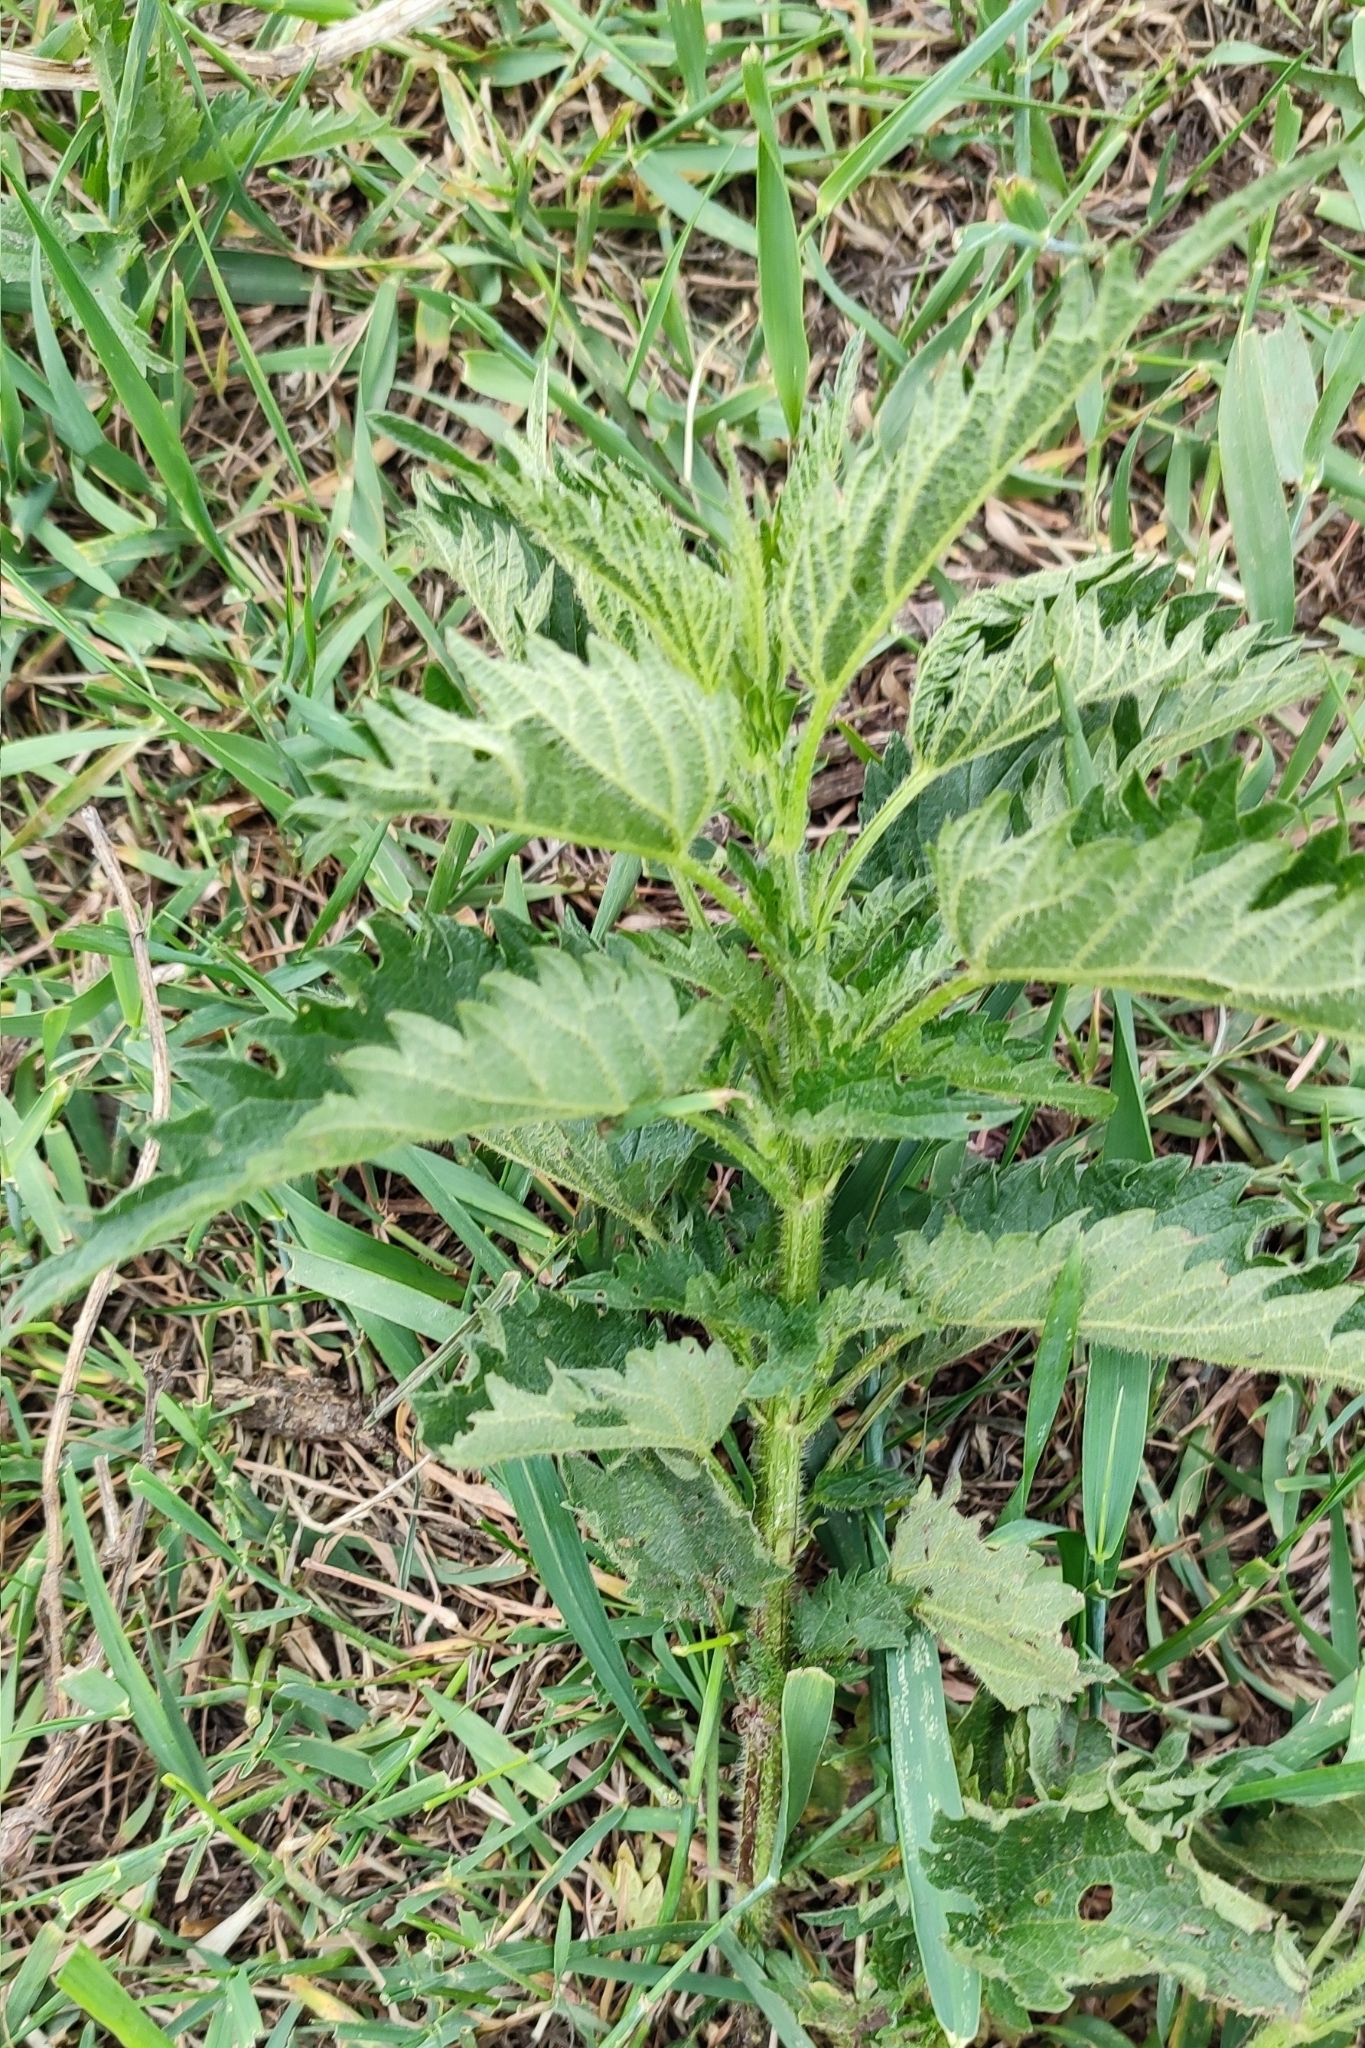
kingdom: Plantae
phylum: Tracheophyta
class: Magnoliopsida
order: Rosales
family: Urticaceae
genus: Urtica
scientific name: Urtica dioica
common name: Common nettle
